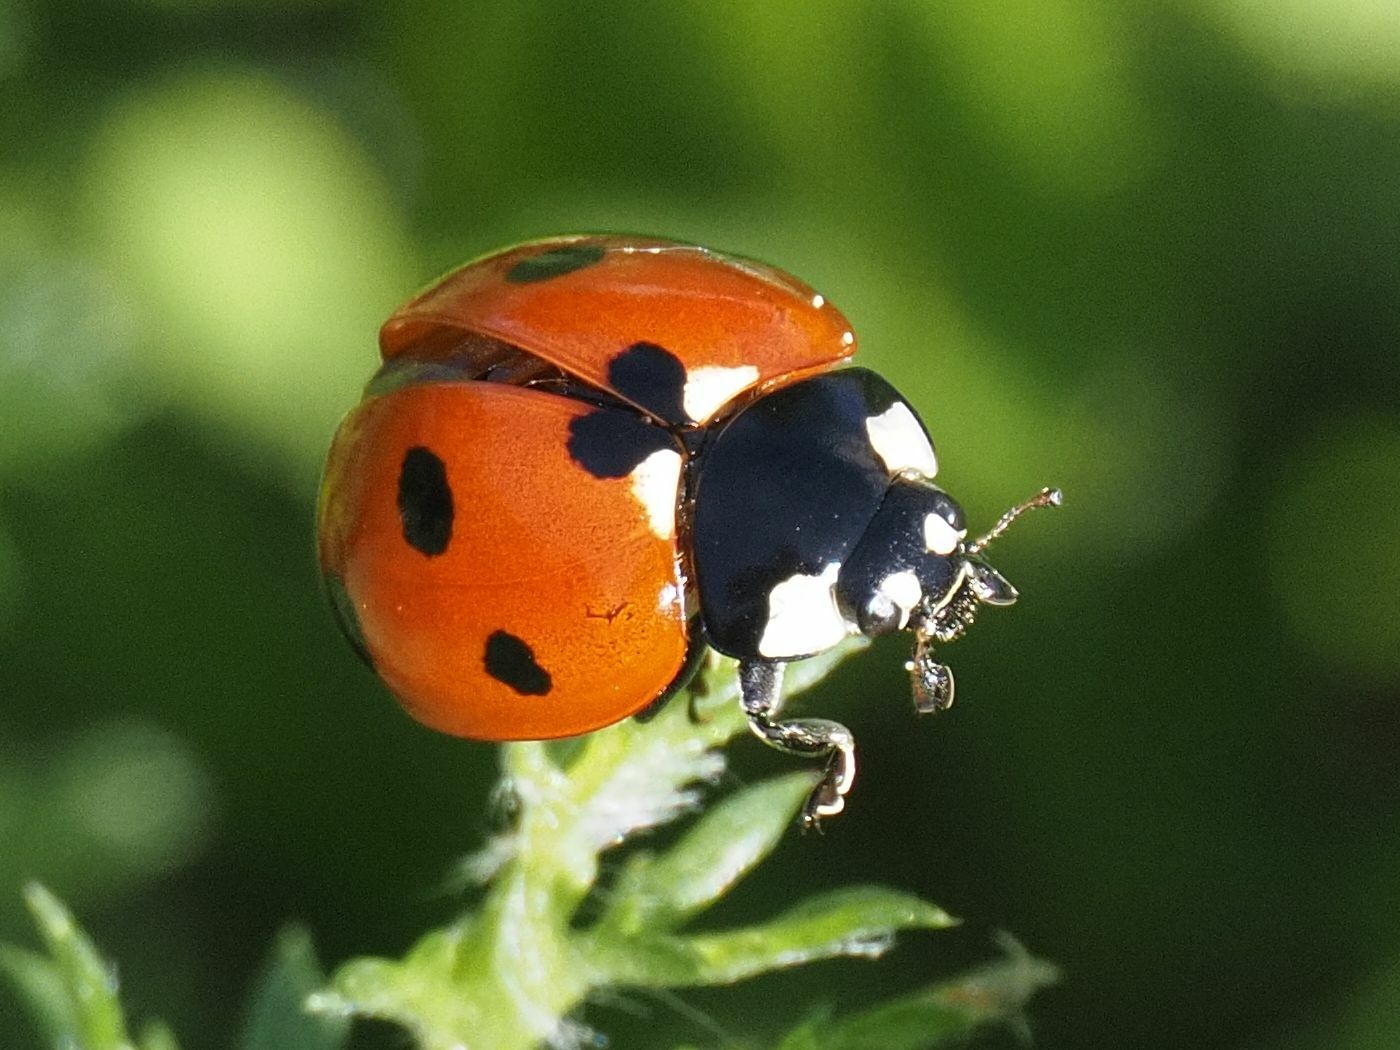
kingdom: Animalia
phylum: Arthropoda
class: Insecta
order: Coleoptera
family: Coccinellidae
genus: Coccinella
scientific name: Coccinella septempunctata
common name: Sevenspotted lady beetle
